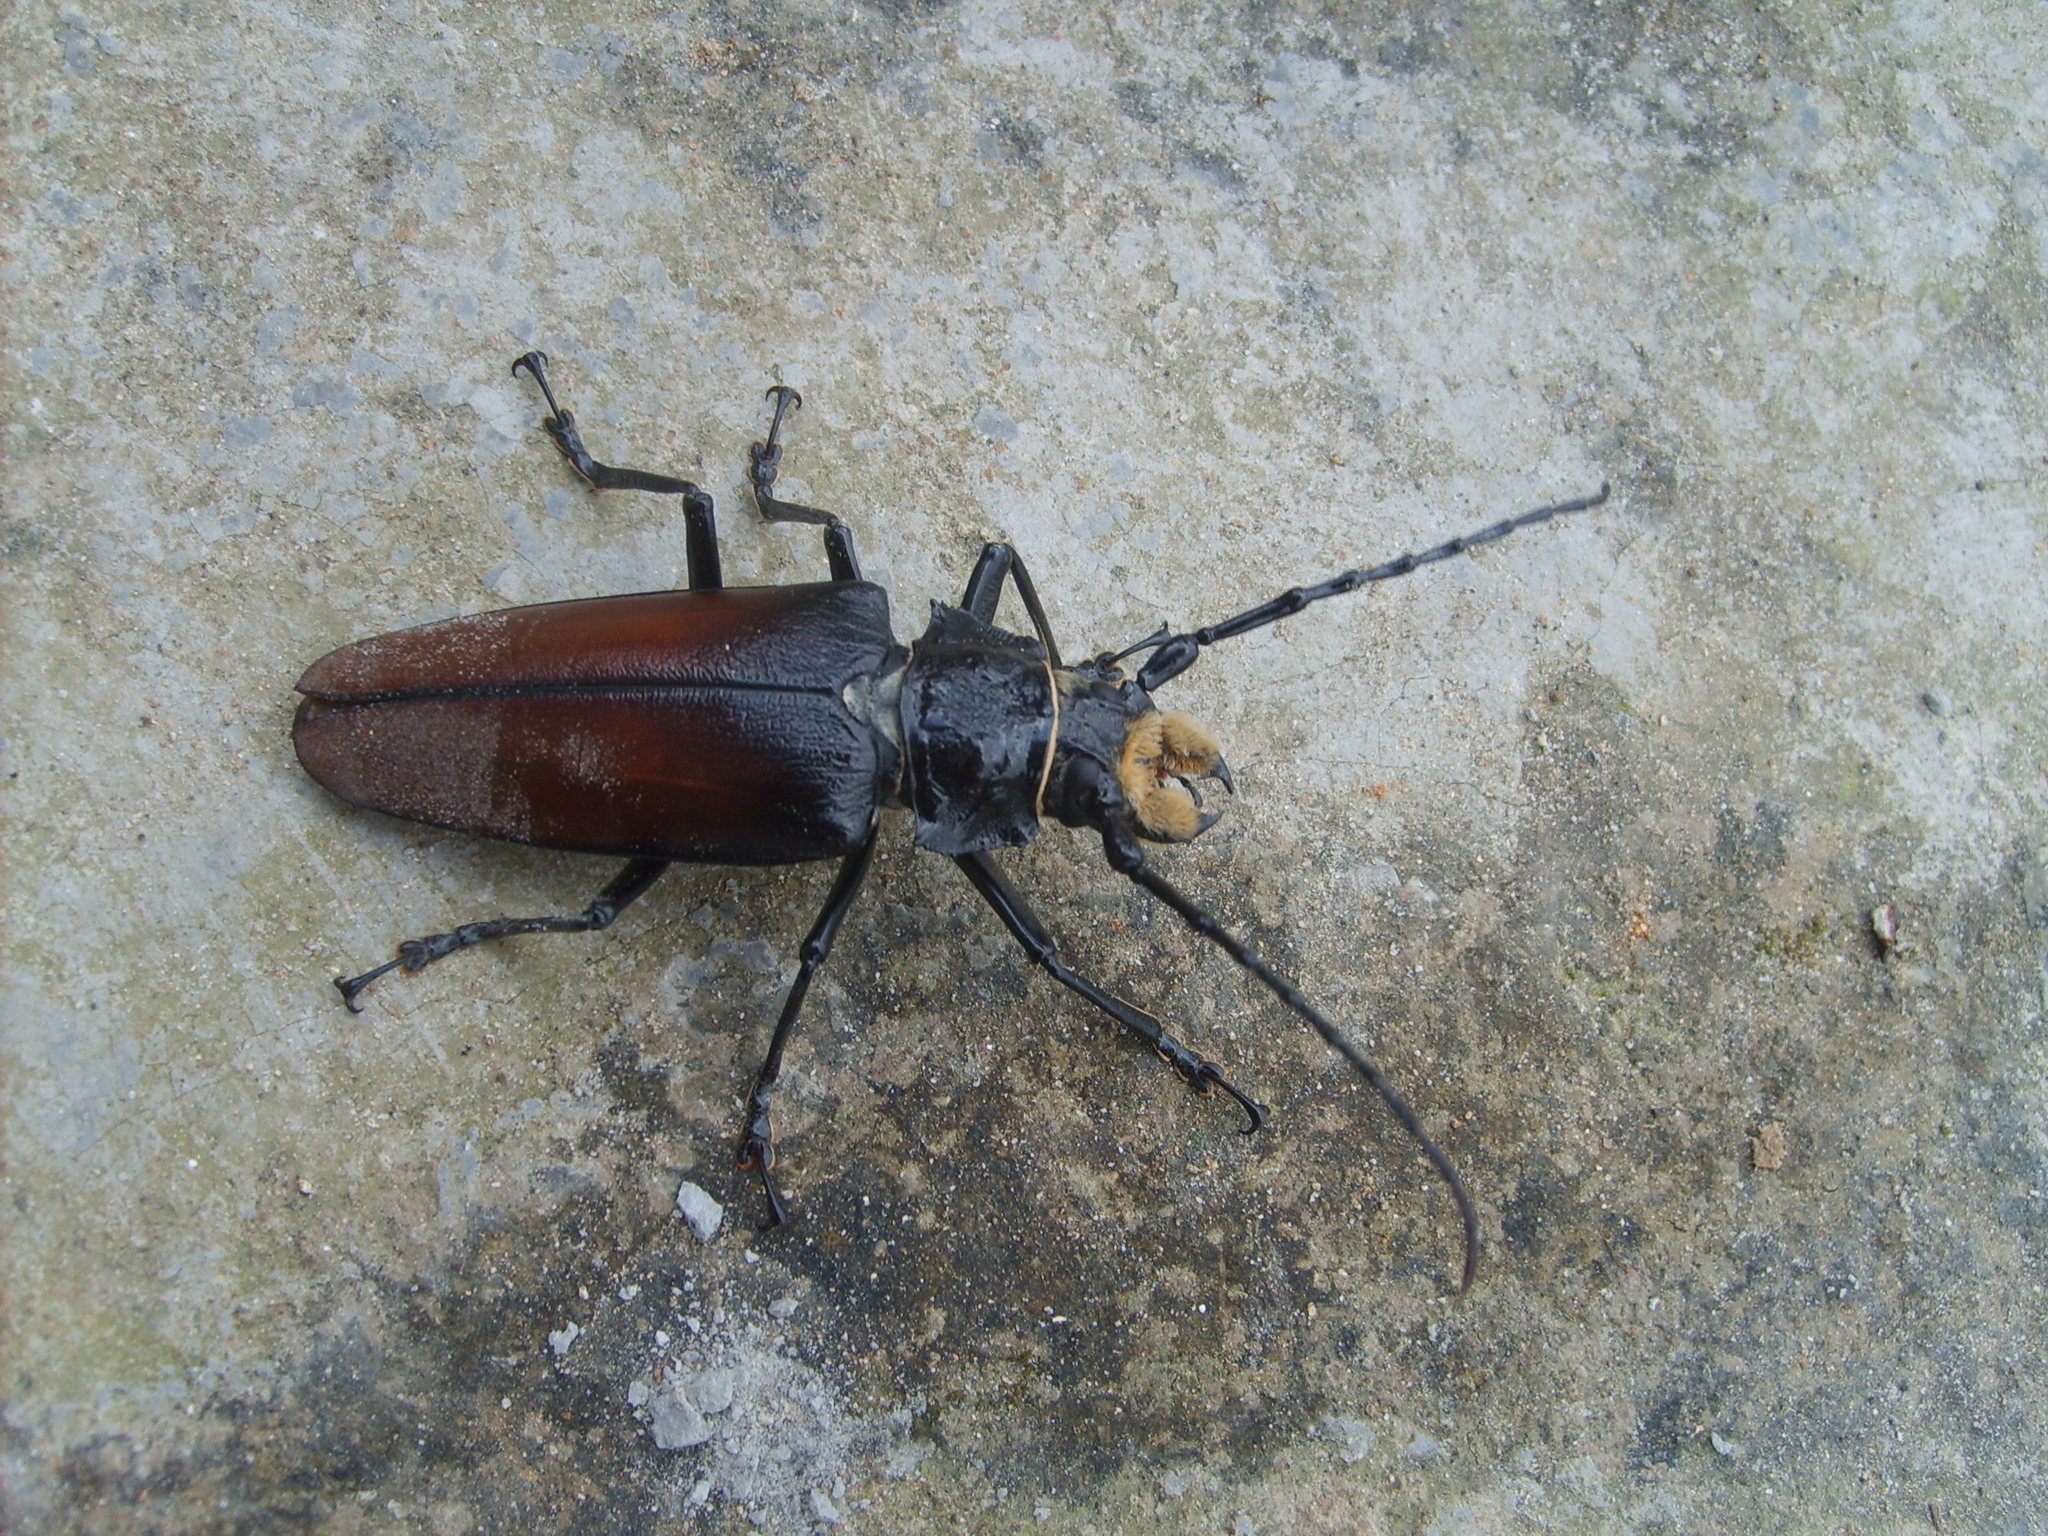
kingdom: Animalia
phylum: Arthropoda
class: Insecta
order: Coleoptera
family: Cerambycidae
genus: Callipogon
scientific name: Callipogon senex
